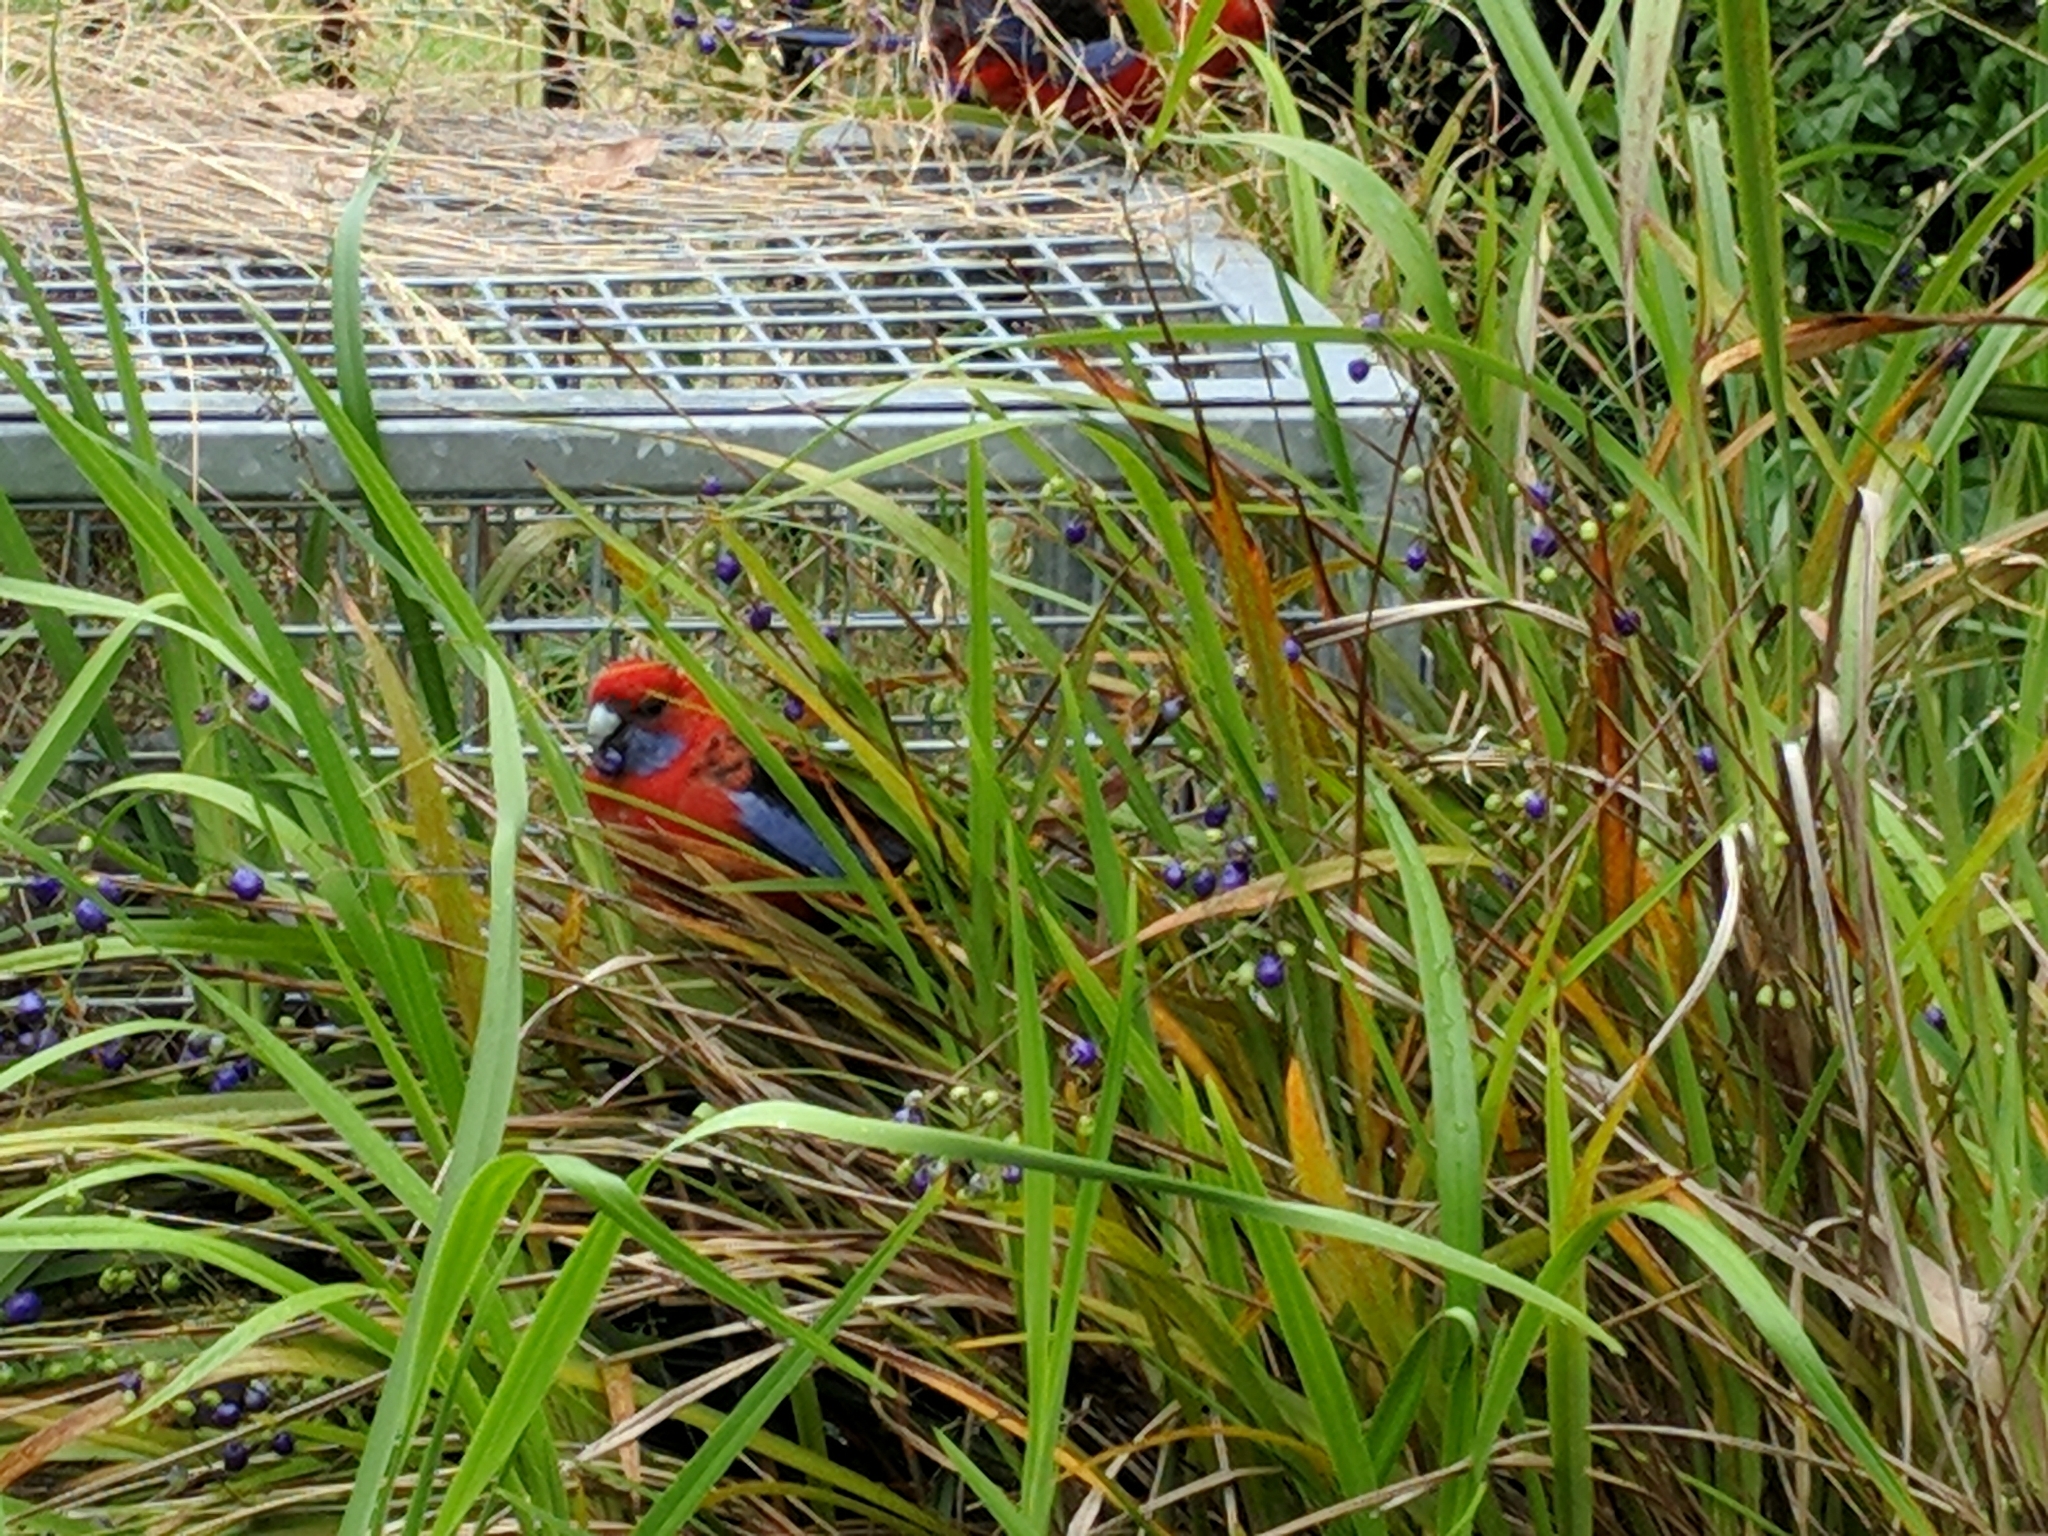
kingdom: Animalia
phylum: Chordata
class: Aves
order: Psittaciformes
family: Psittacidae
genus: Platycercus
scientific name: Platycercus elegans
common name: Crimson rosella
